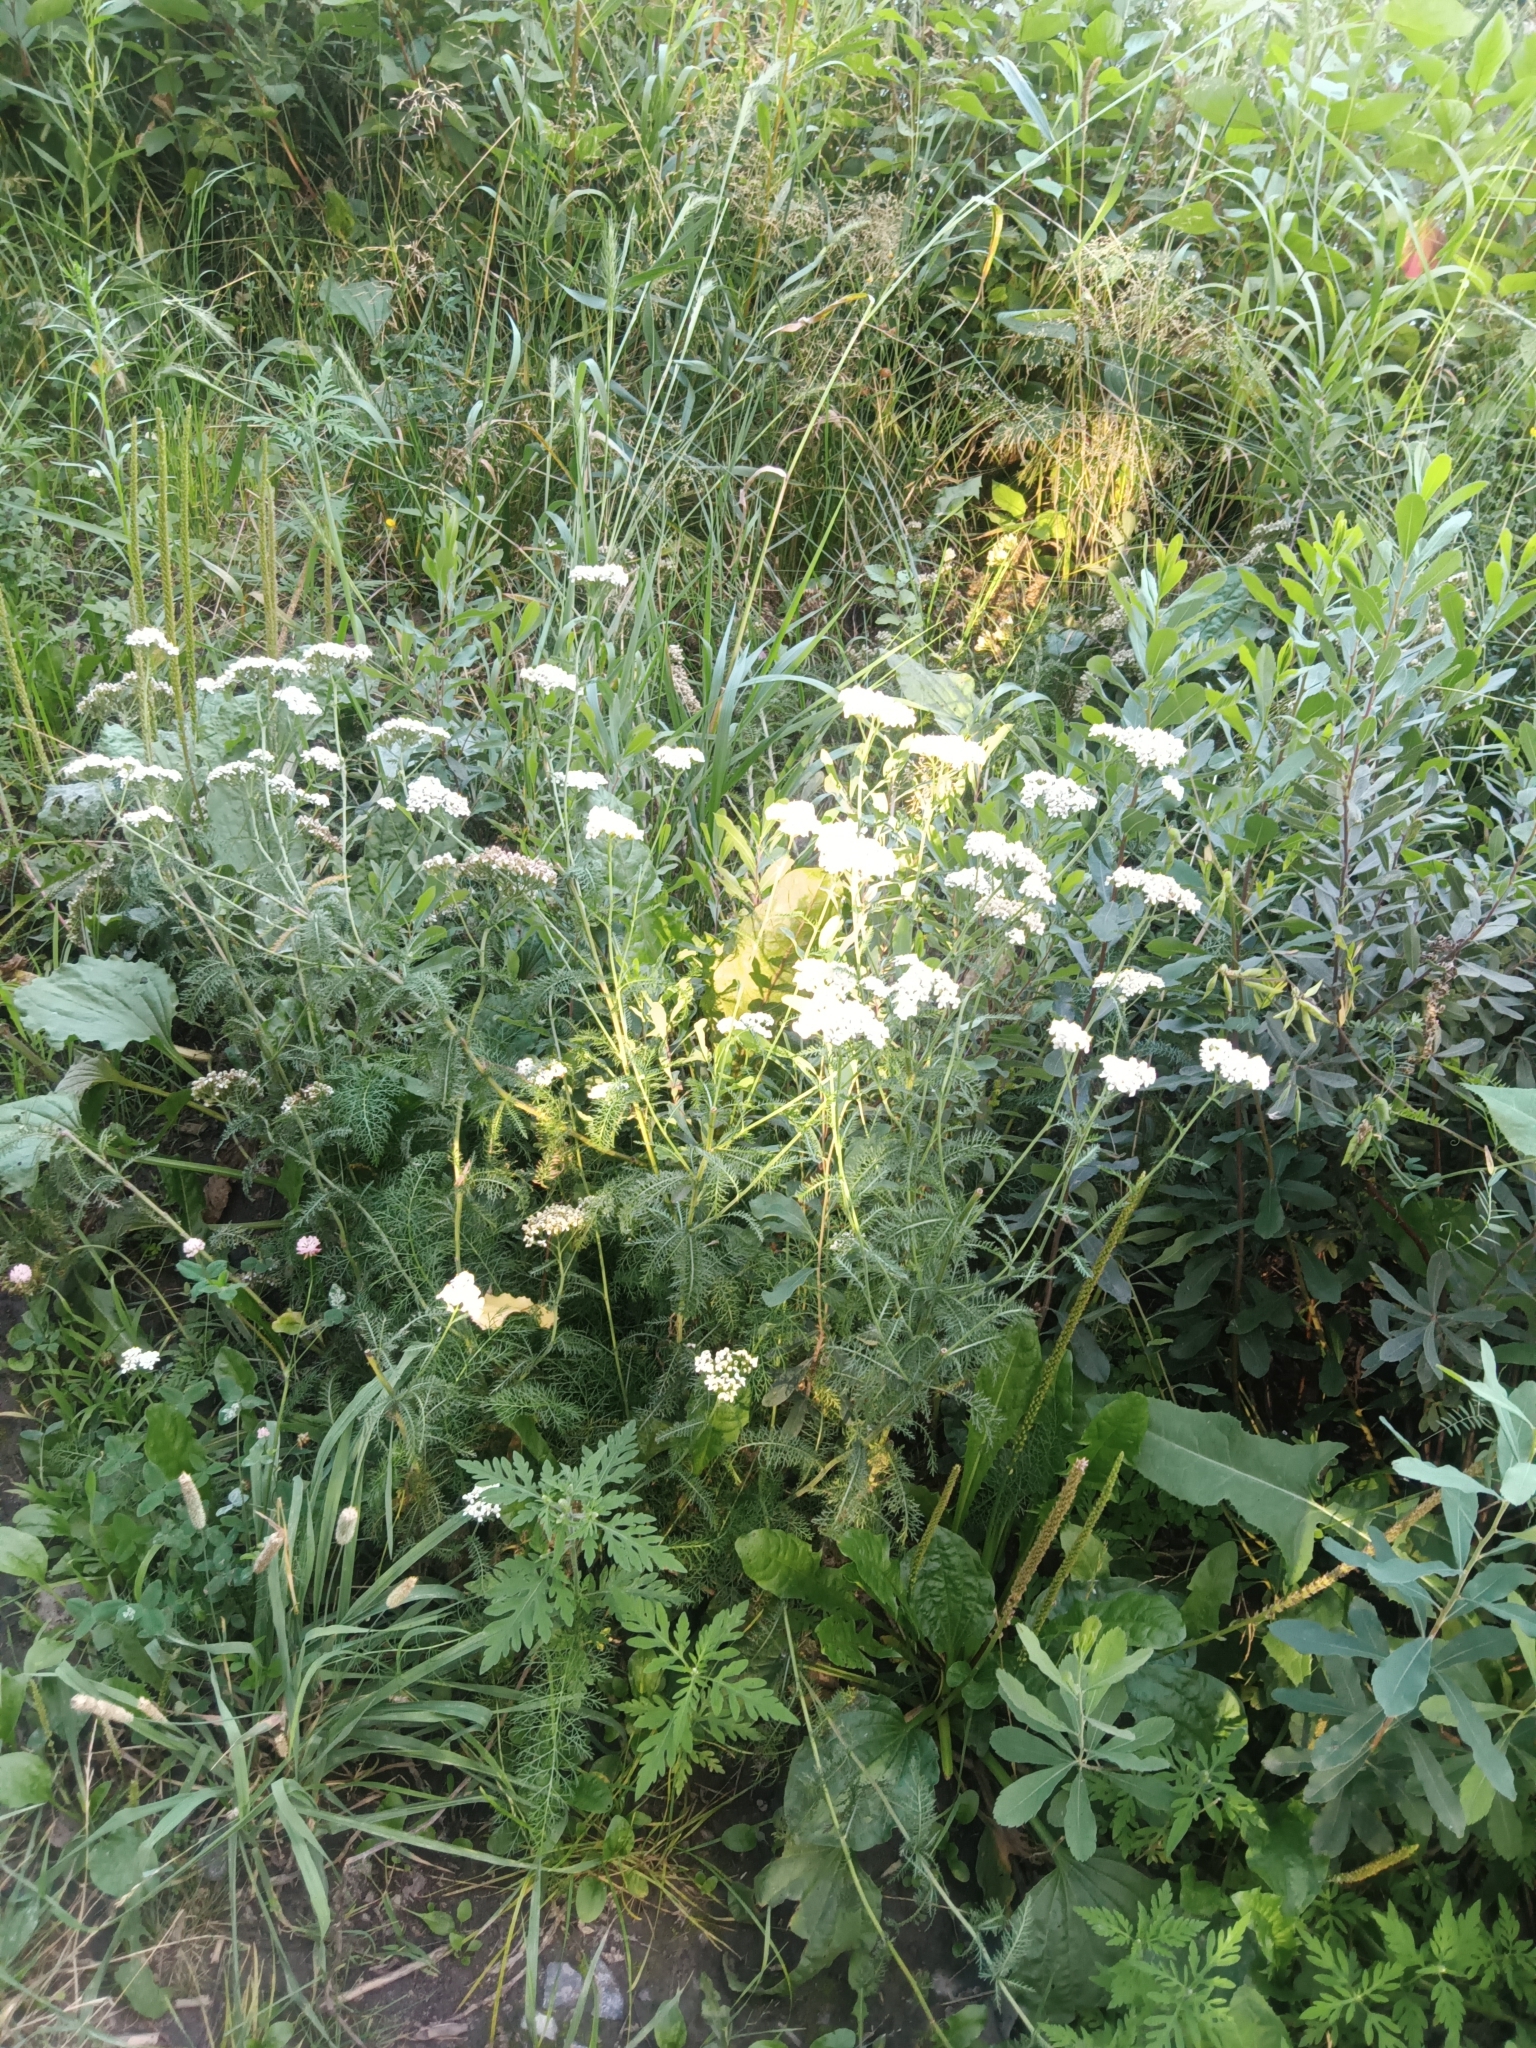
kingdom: Plantae
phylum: Tracheophyta
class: Magnoliopsida
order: Asterales
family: Asteraceae
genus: Achillea
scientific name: Achillea millefolium
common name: Yarrow
